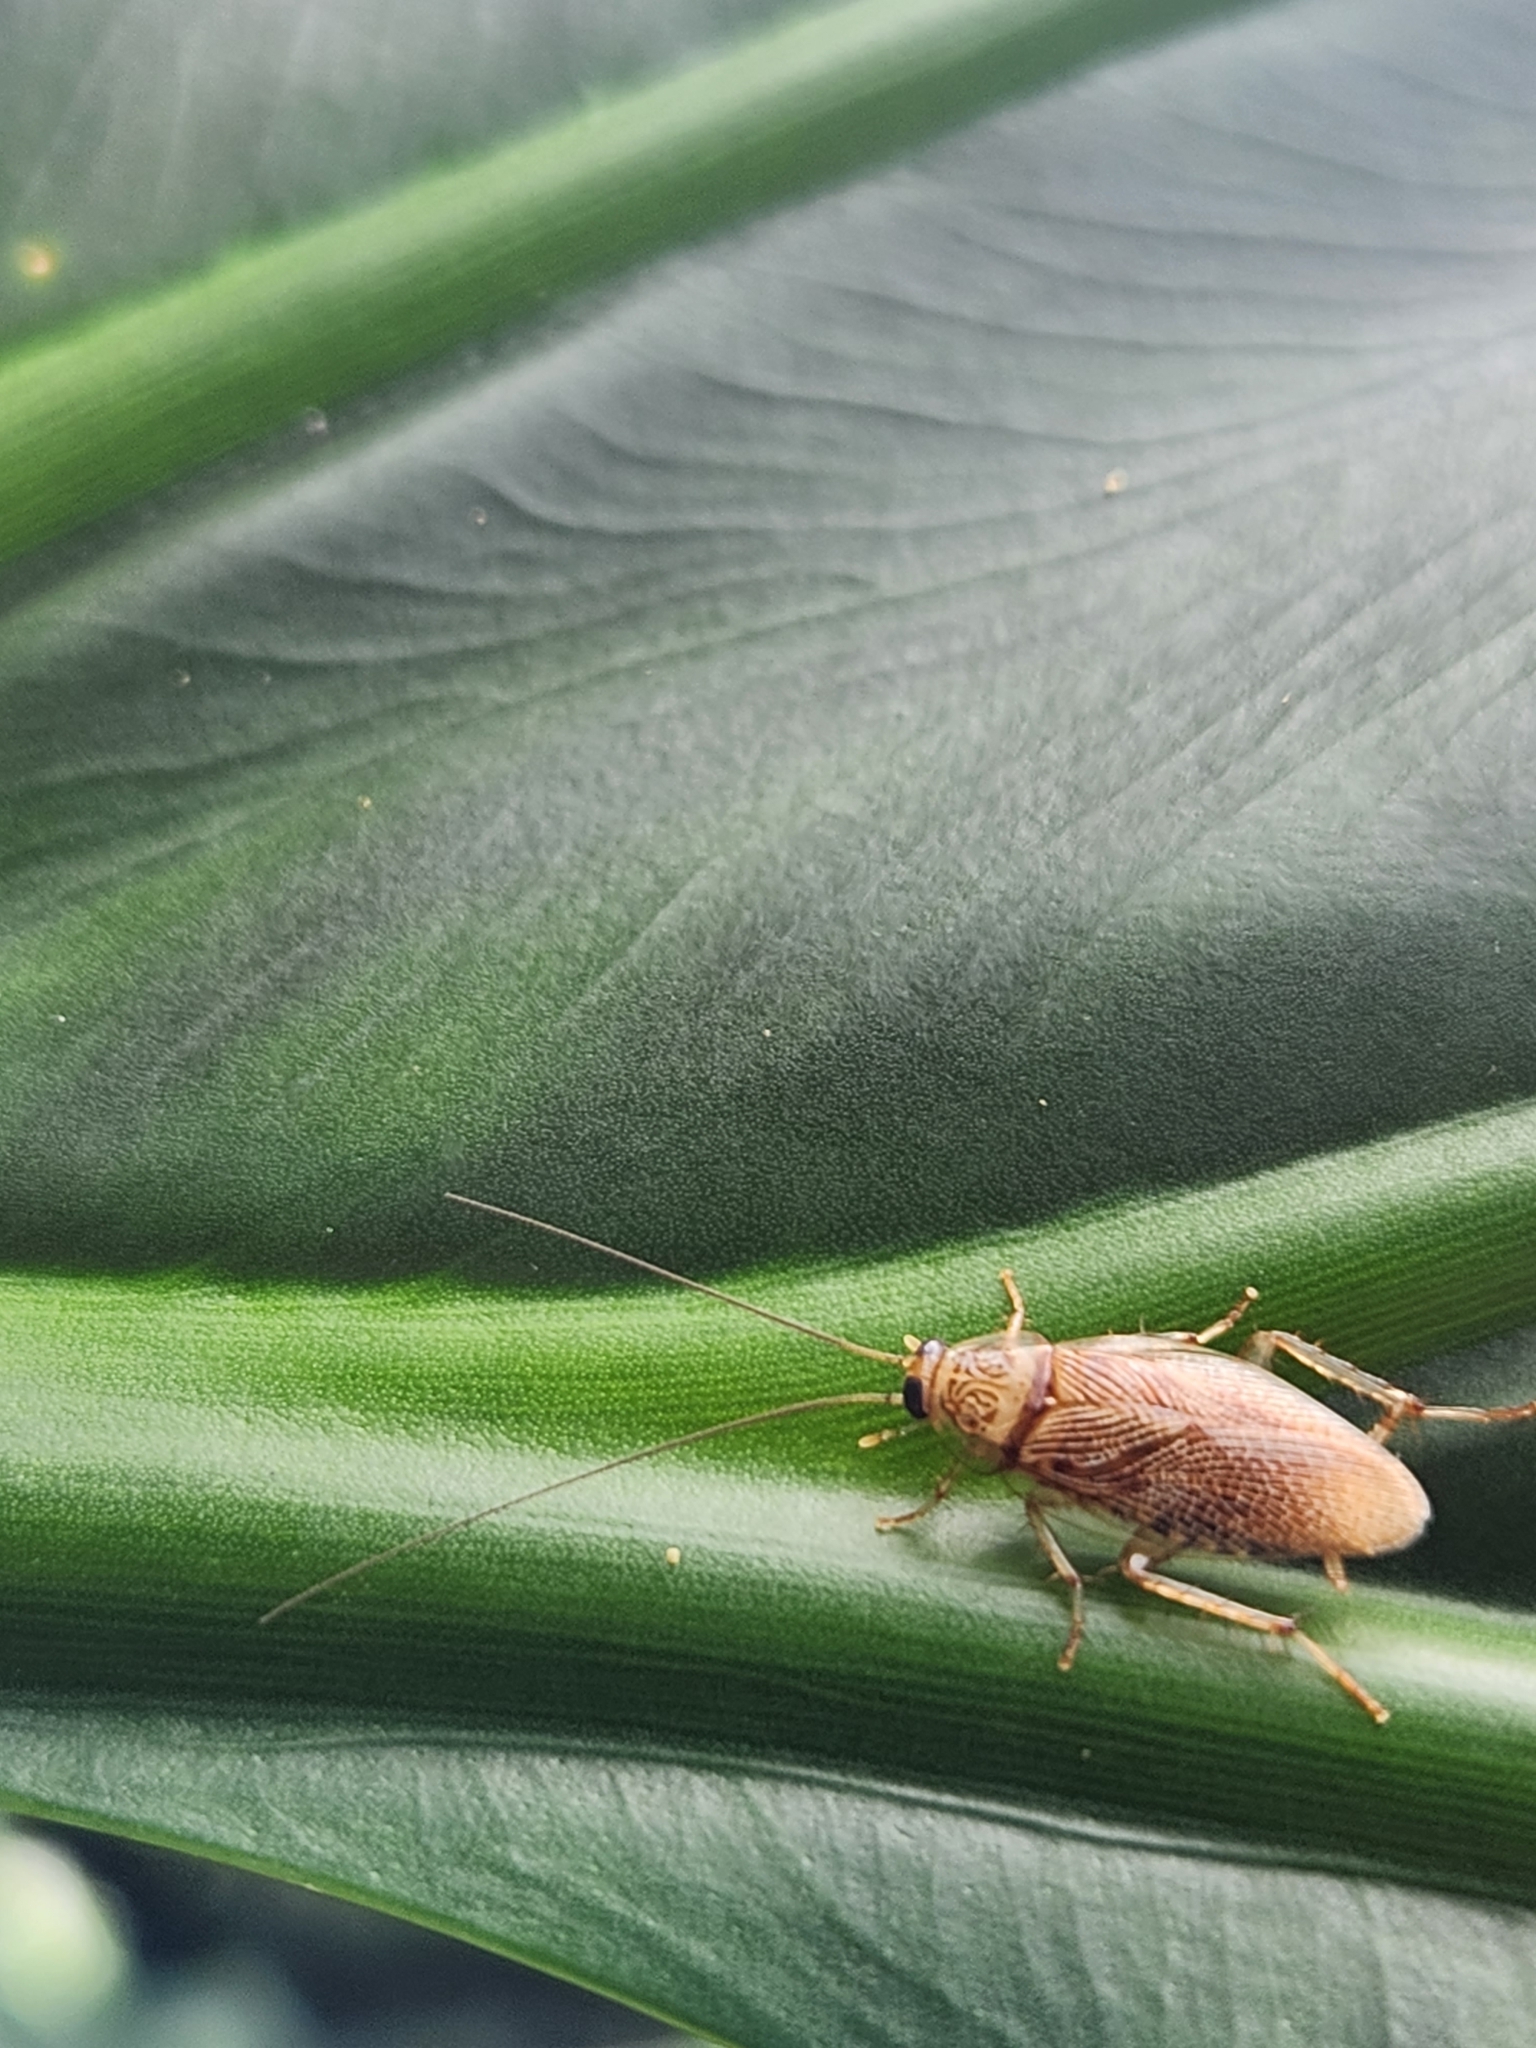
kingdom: Animalia
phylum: Arthropoda
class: Insecta
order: Blattodea
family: Ectobiidae
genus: Balta
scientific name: Balta notulata
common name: Cockroach
